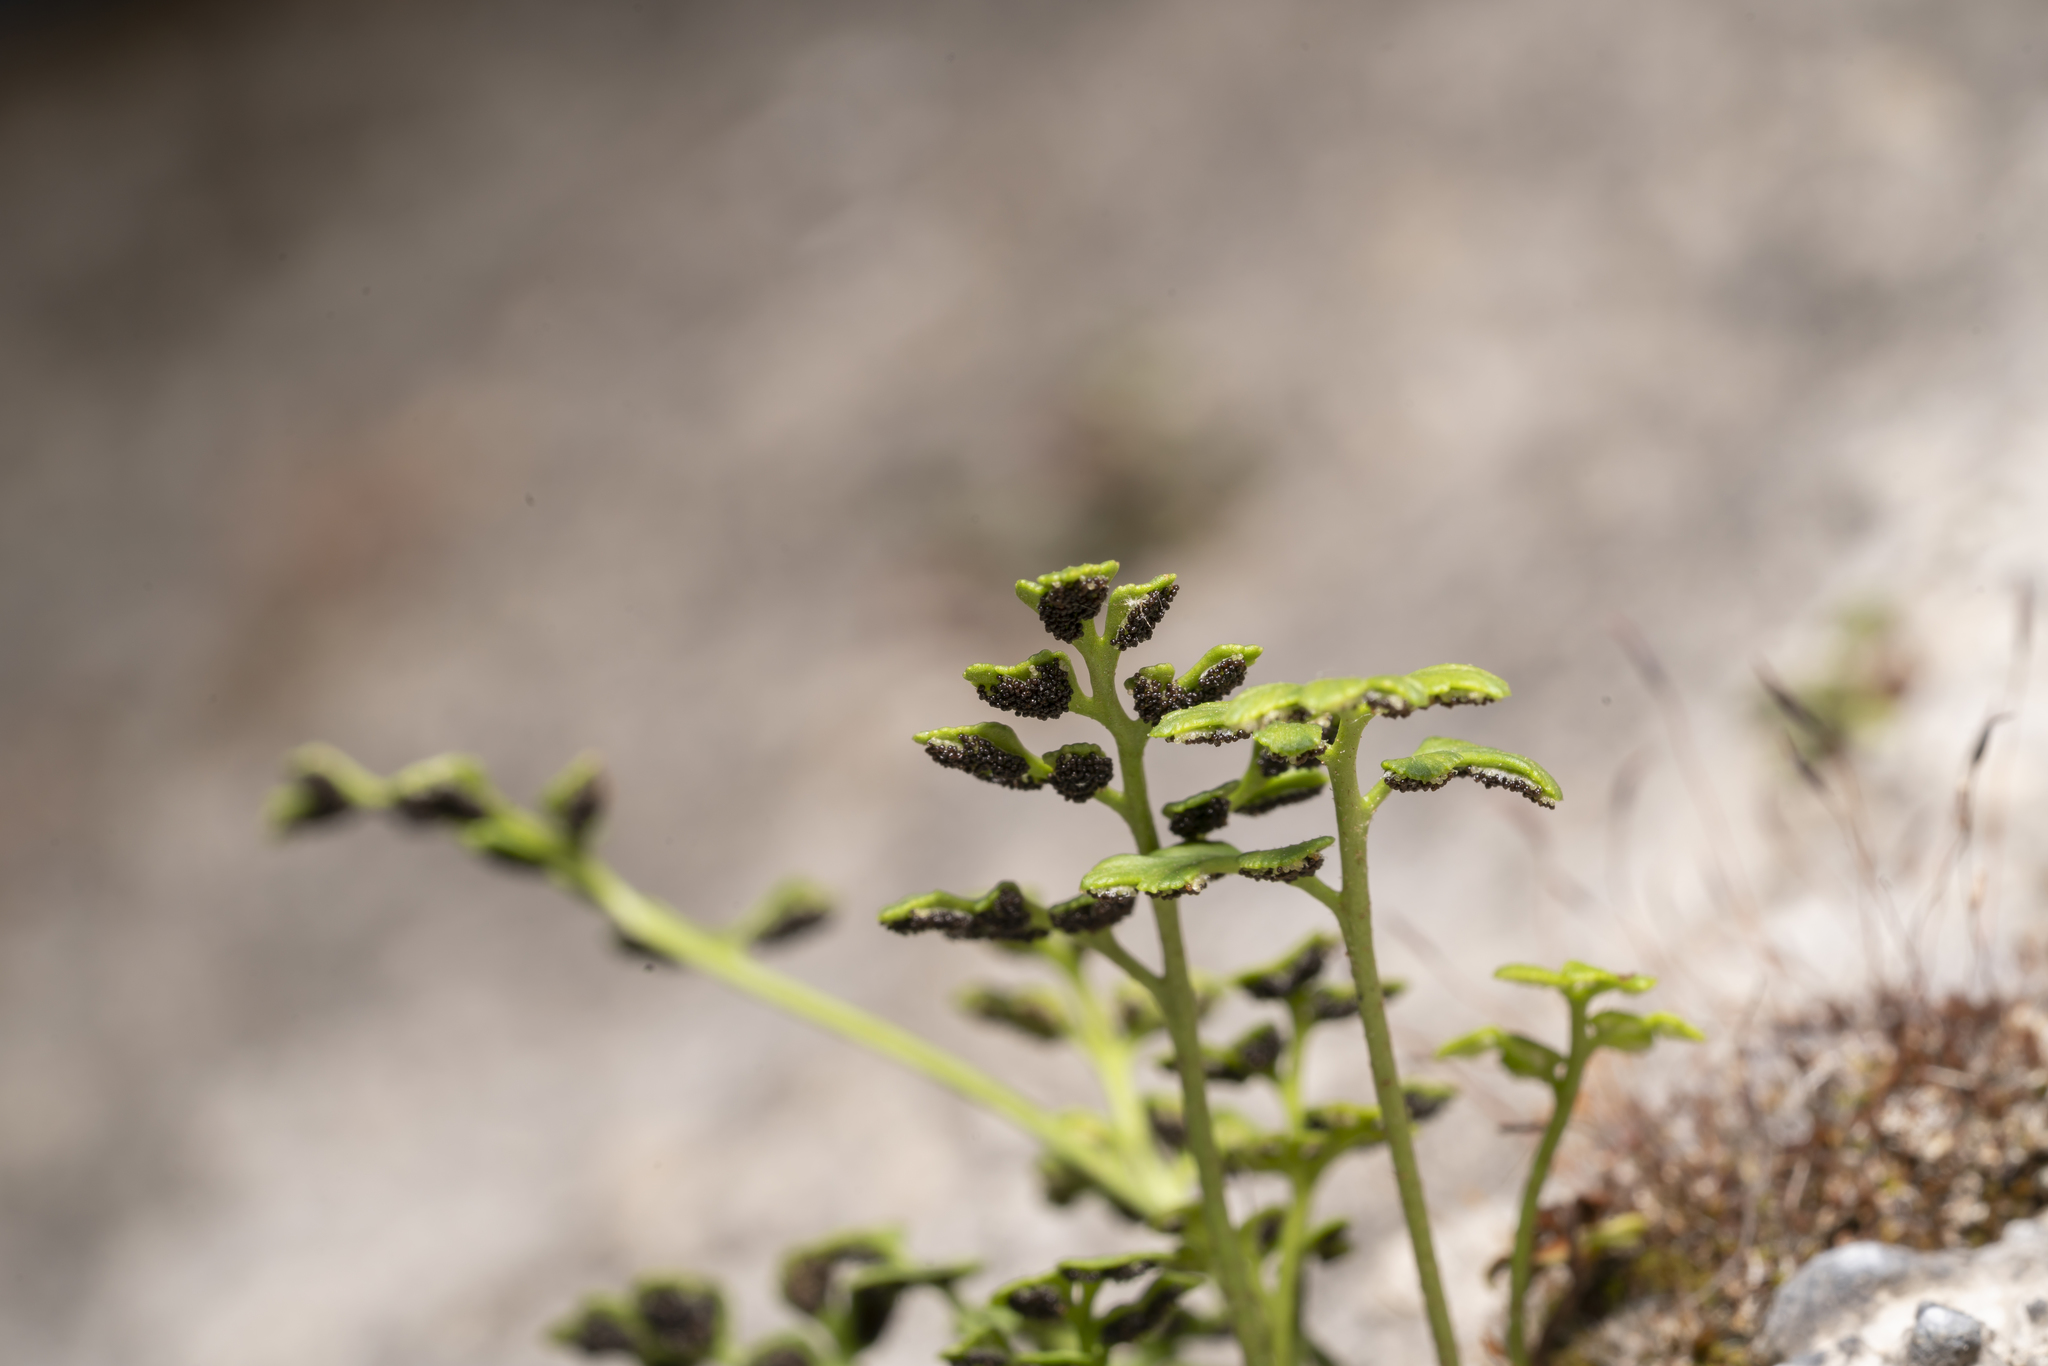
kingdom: Plantae
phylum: Tracheophyta
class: Polypodiopsida
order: Polypodiales
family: Aspleniaceae
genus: Asplenium
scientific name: Asplenium ruta-muraria
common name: Wall-rue
